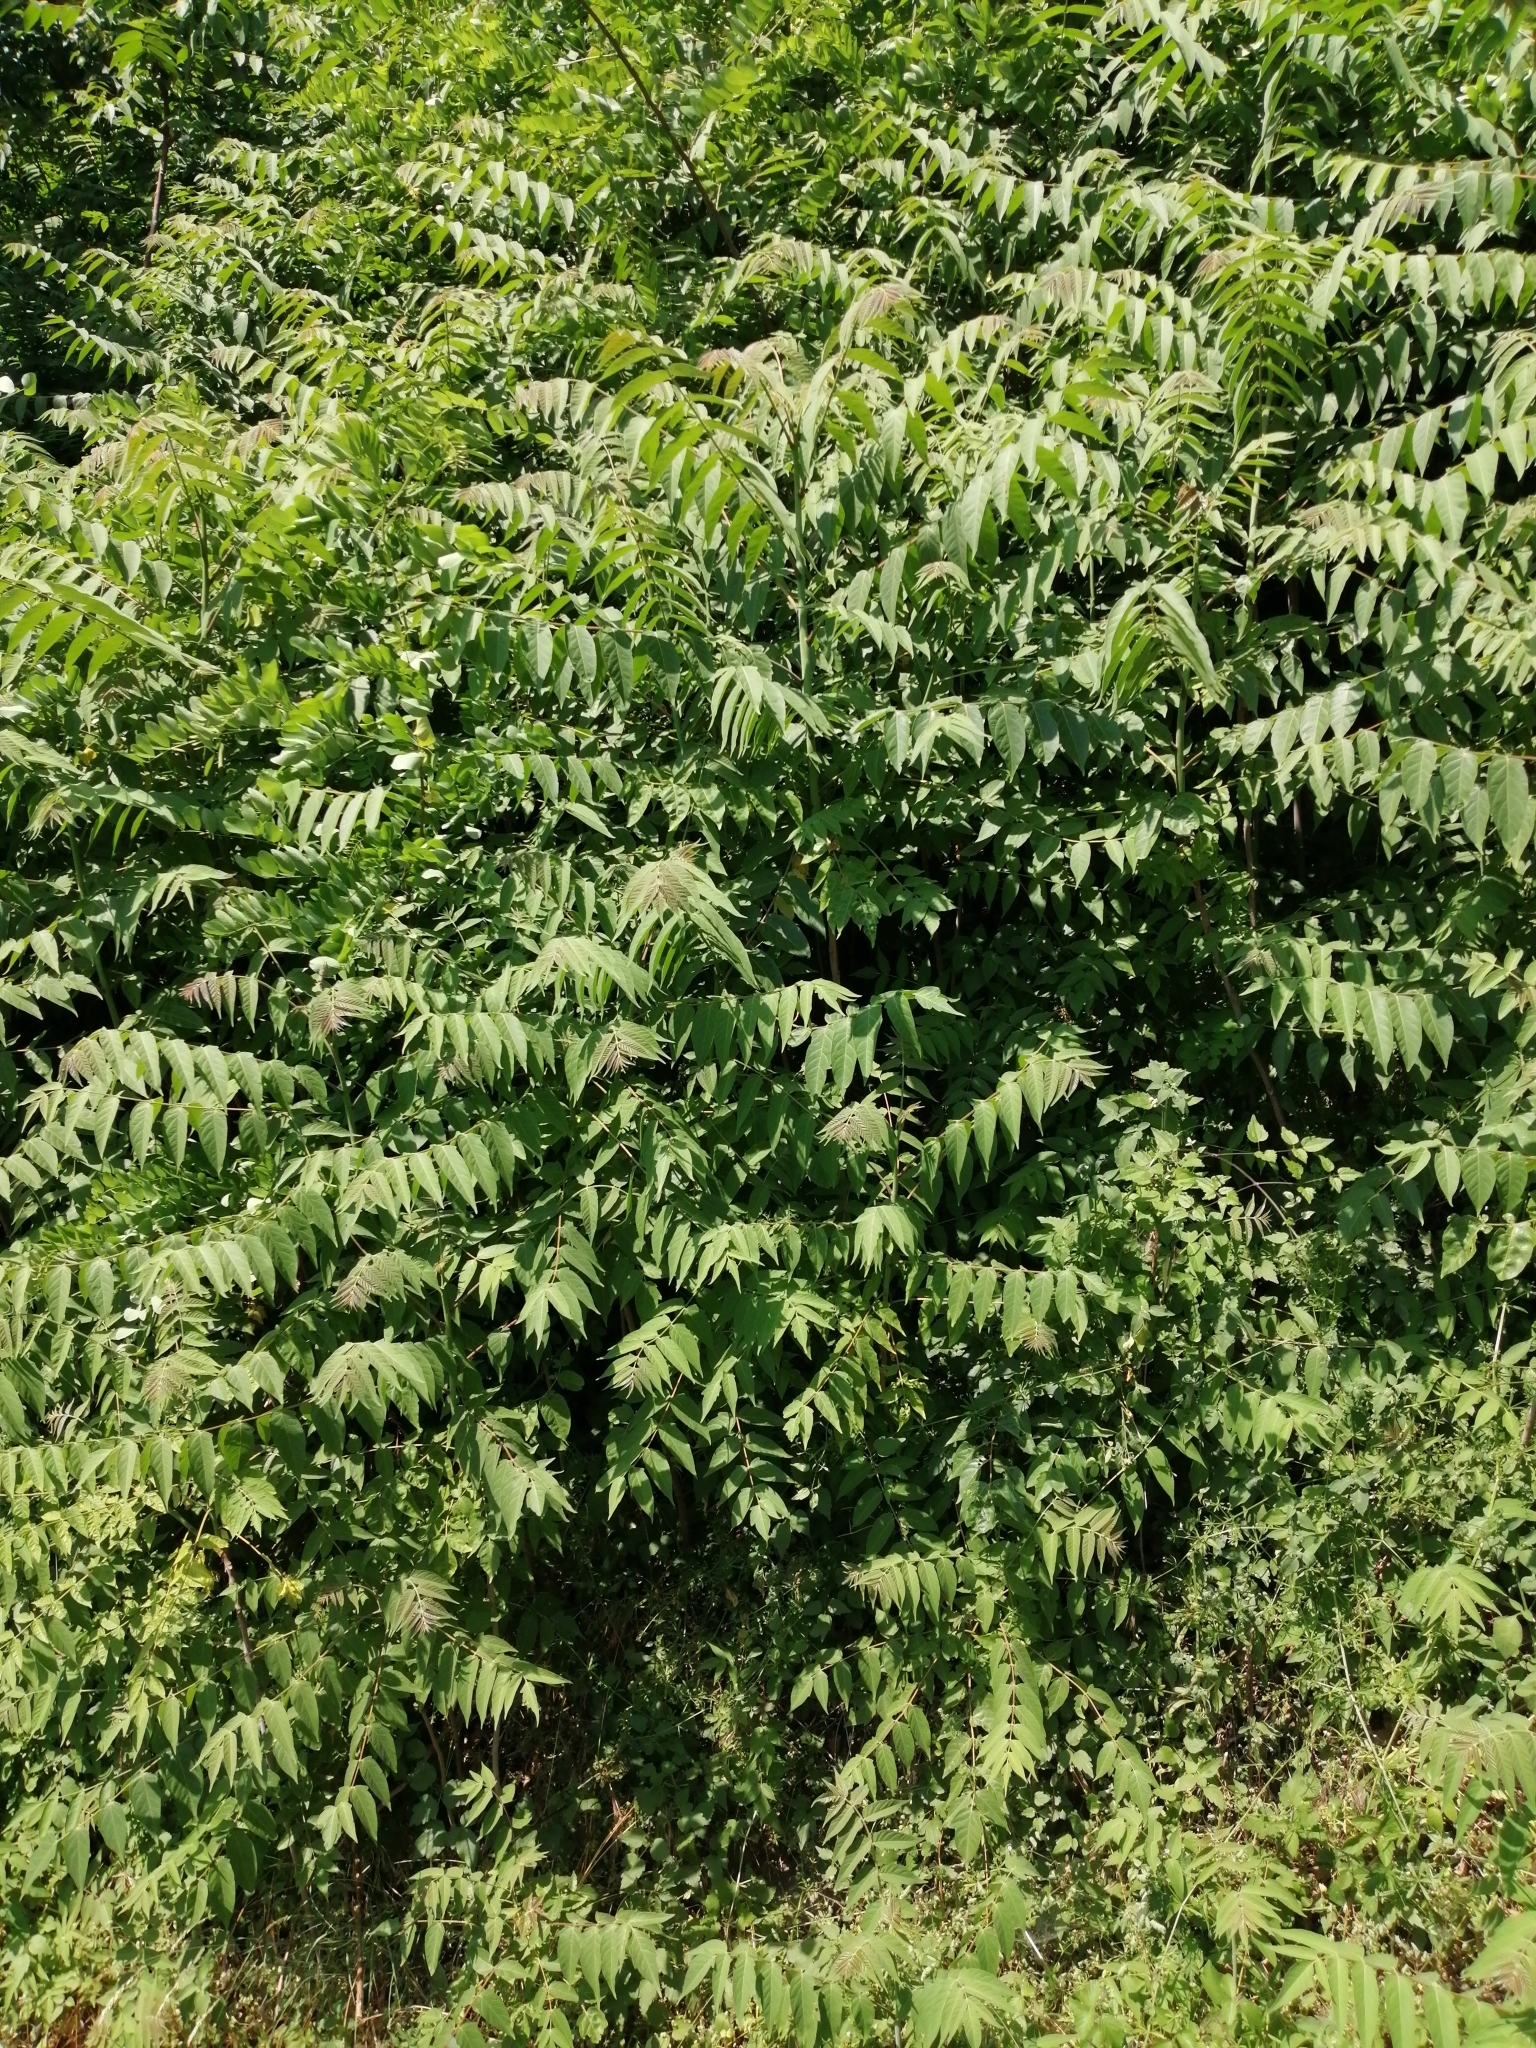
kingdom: Plantae
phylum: Tracheophyta
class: Magnoliopsida
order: Sapindales
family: Simaroubaceae
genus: Ailanthus
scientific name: Ailanthus altissima
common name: Tree-of-heaven
